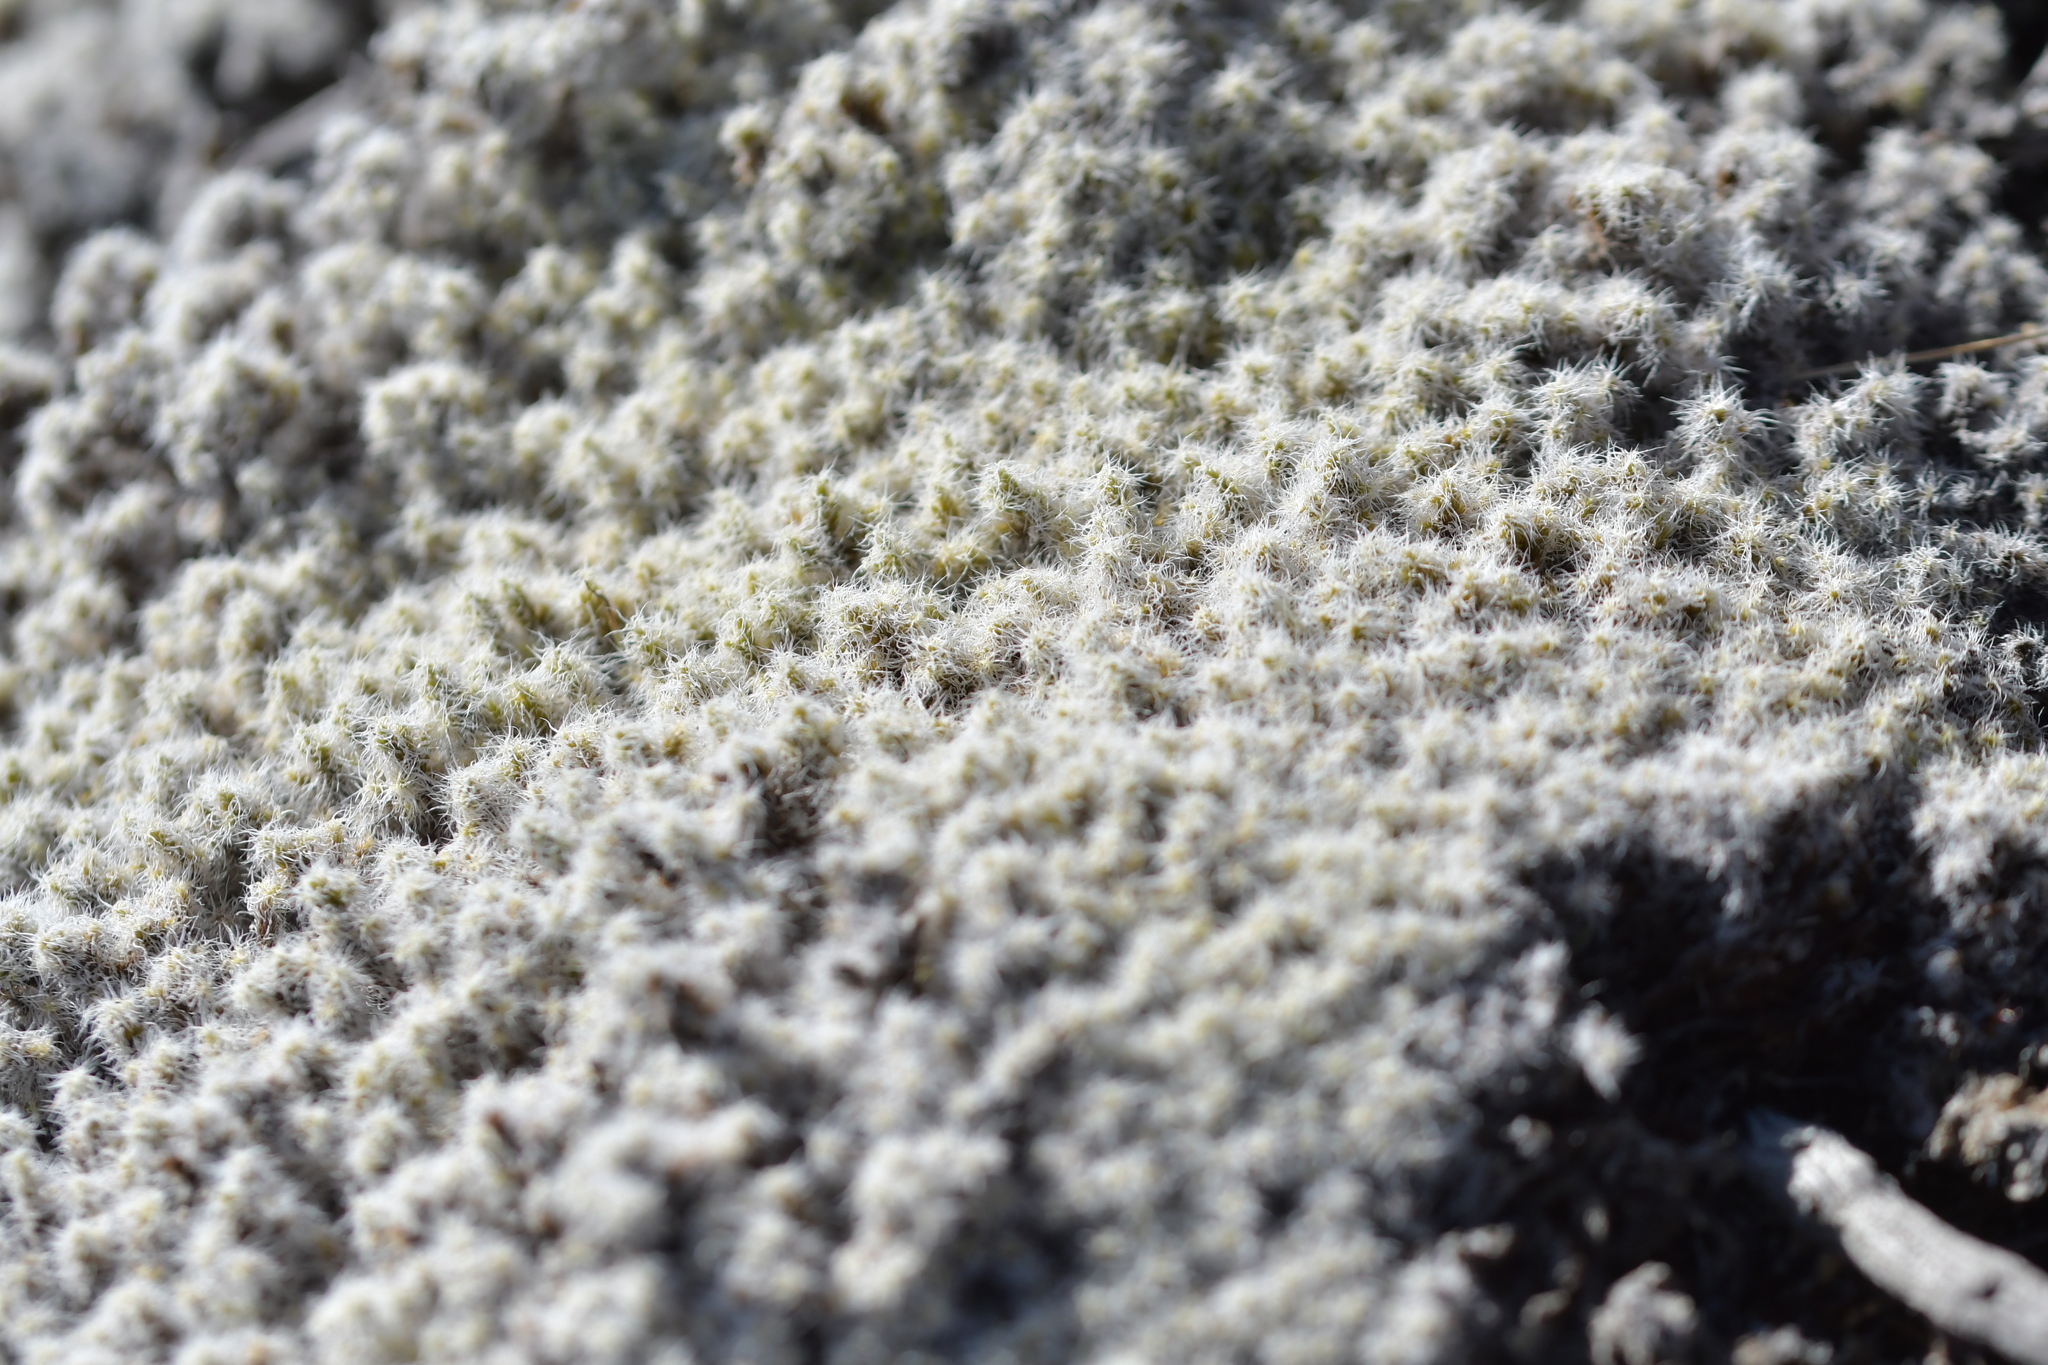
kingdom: Plantae
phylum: Bryophyta
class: Bryopsida
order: Grimmiales
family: Grimmiaceae
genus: Racomitrium
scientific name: Racomitrium lanuginosum
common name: Hoary rock moss
